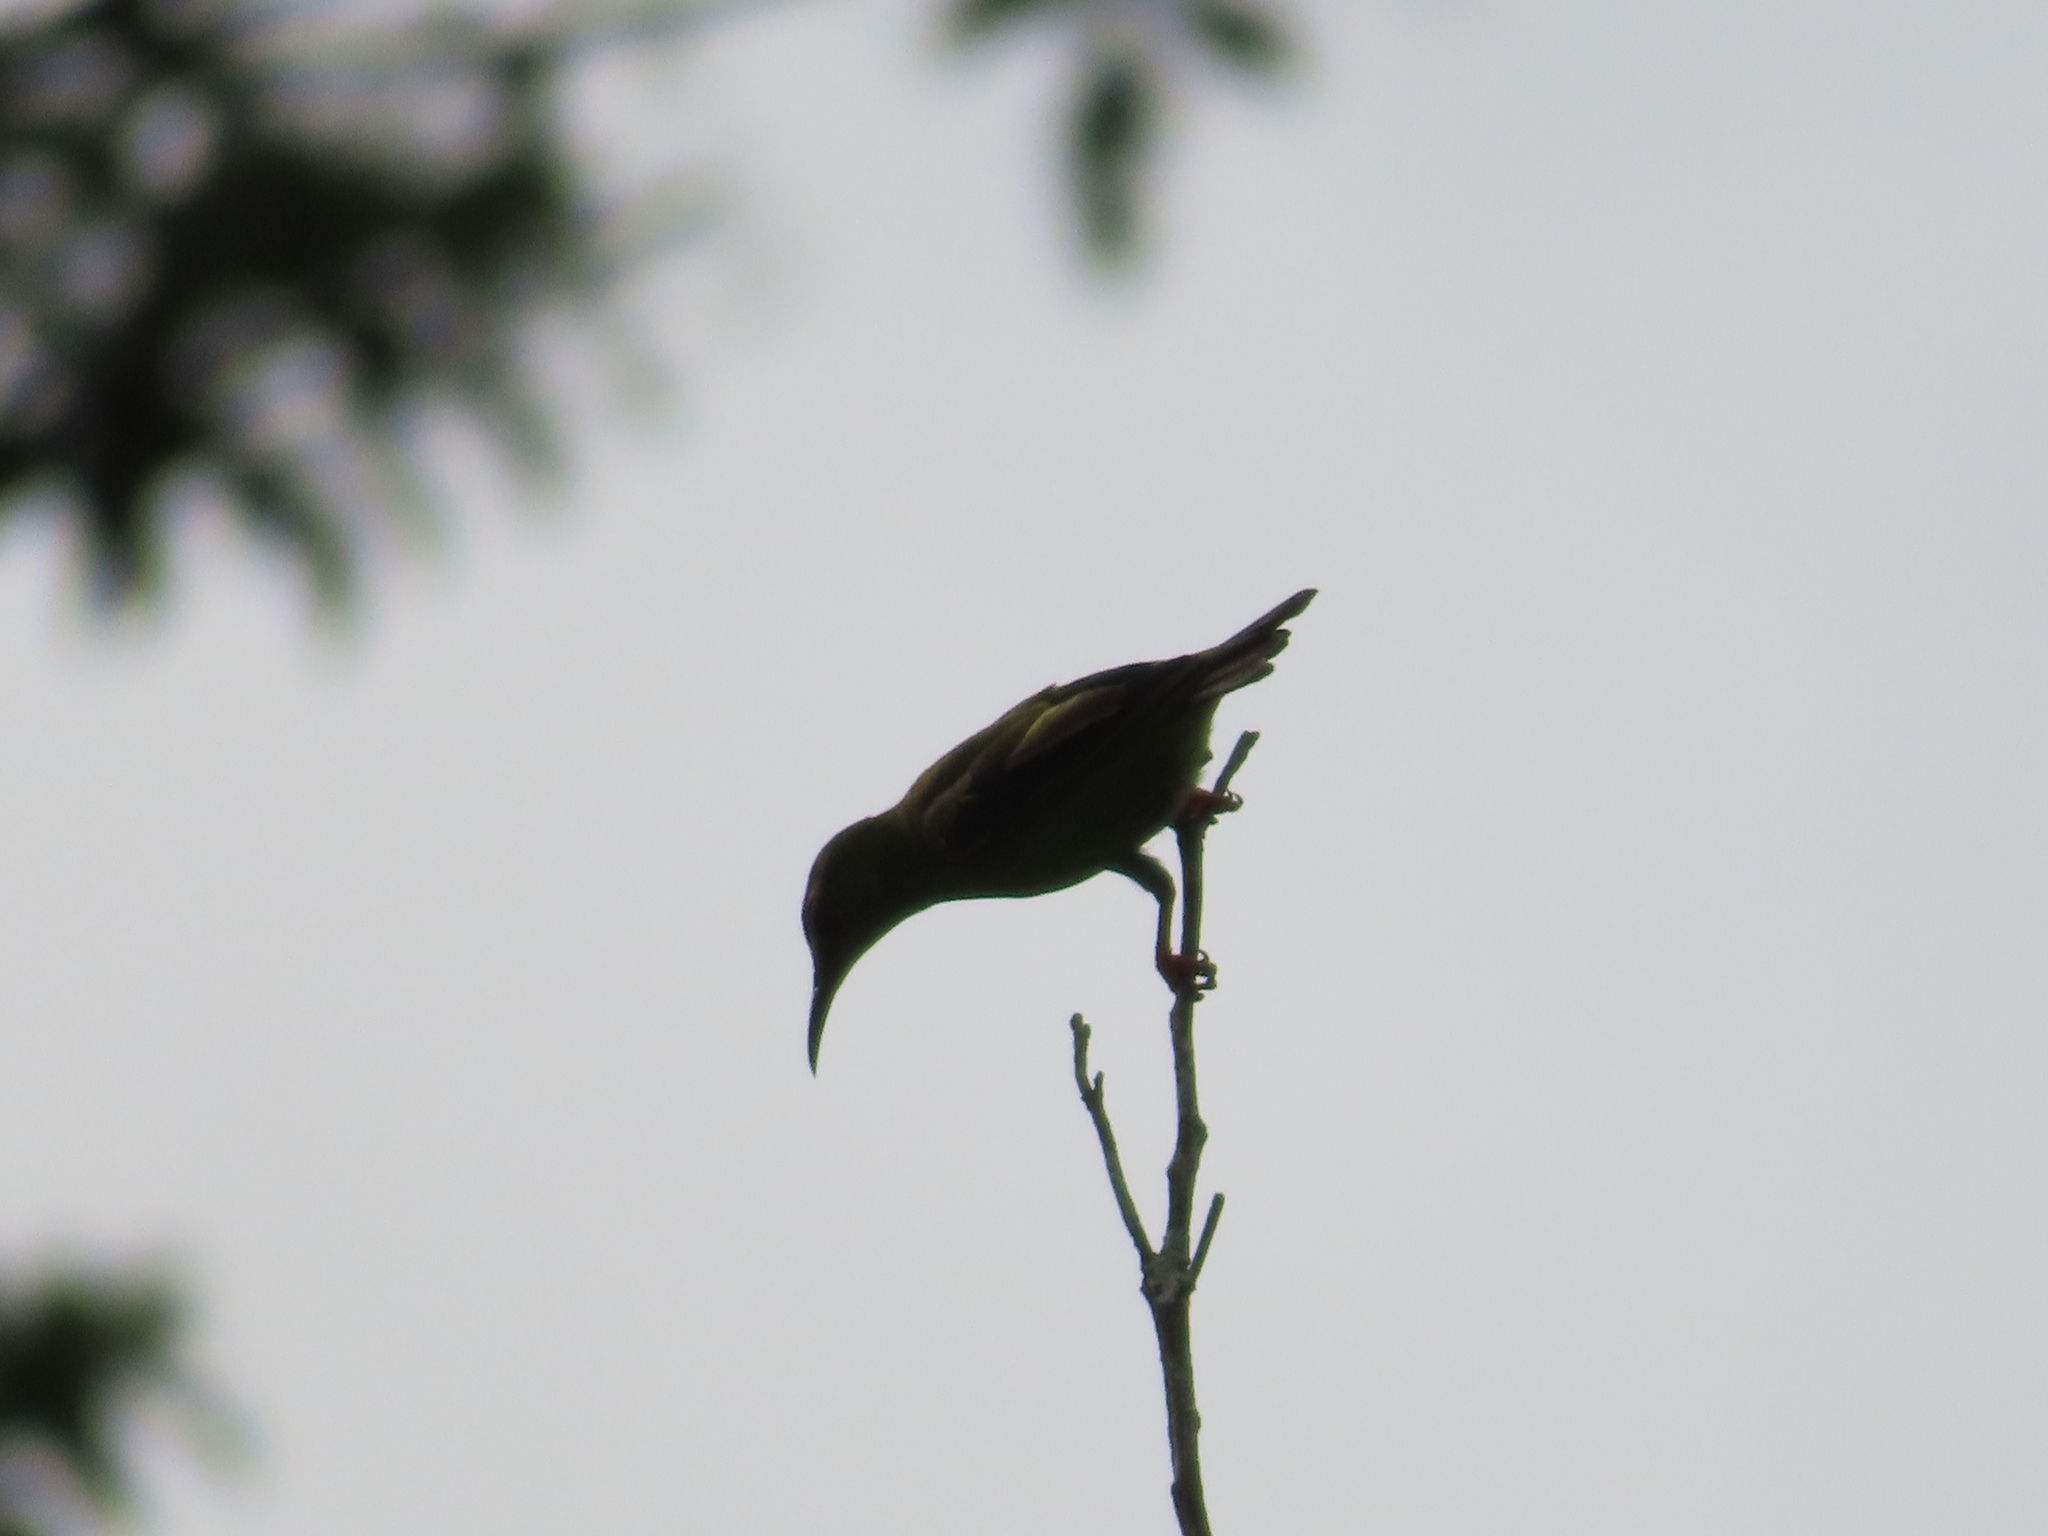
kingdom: Animalia
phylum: Chordata
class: Aves
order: Passeriformes
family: Thraupidae
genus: Cyanerpes
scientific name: Cyanerpes cyaneus
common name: Red-legged honeycreeper
